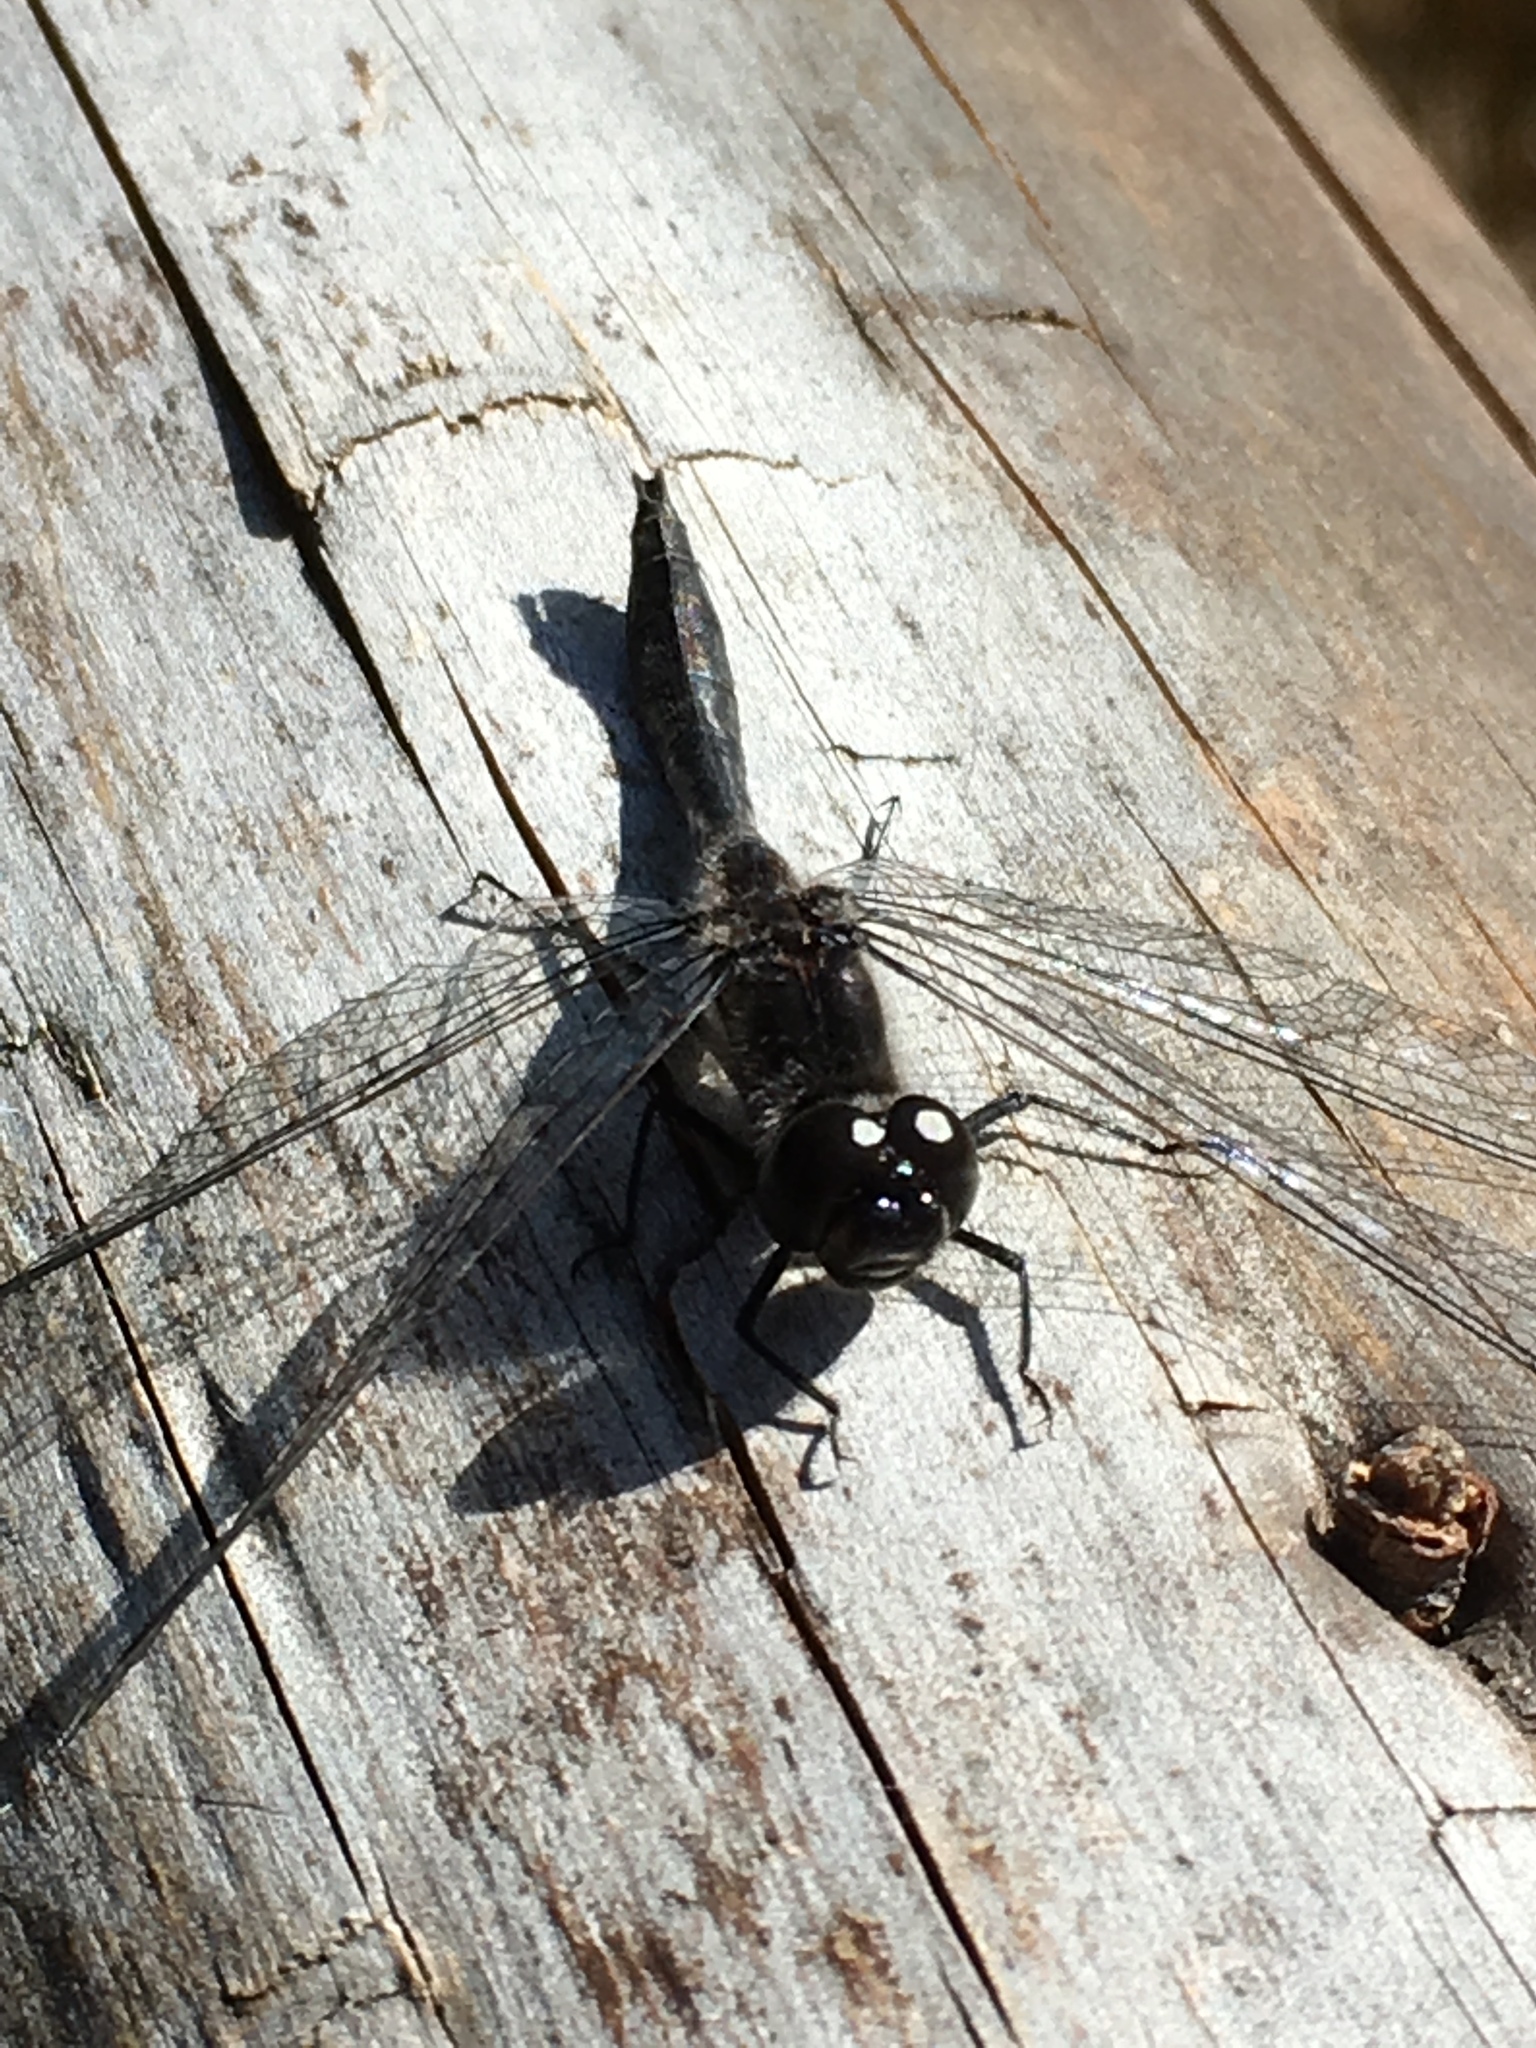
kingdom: Animalia
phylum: Arthropoda
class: Insecta
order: Odonata
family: Libellulidae
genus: Sympetrum
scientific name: Sympetrum danae
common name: Black darter
